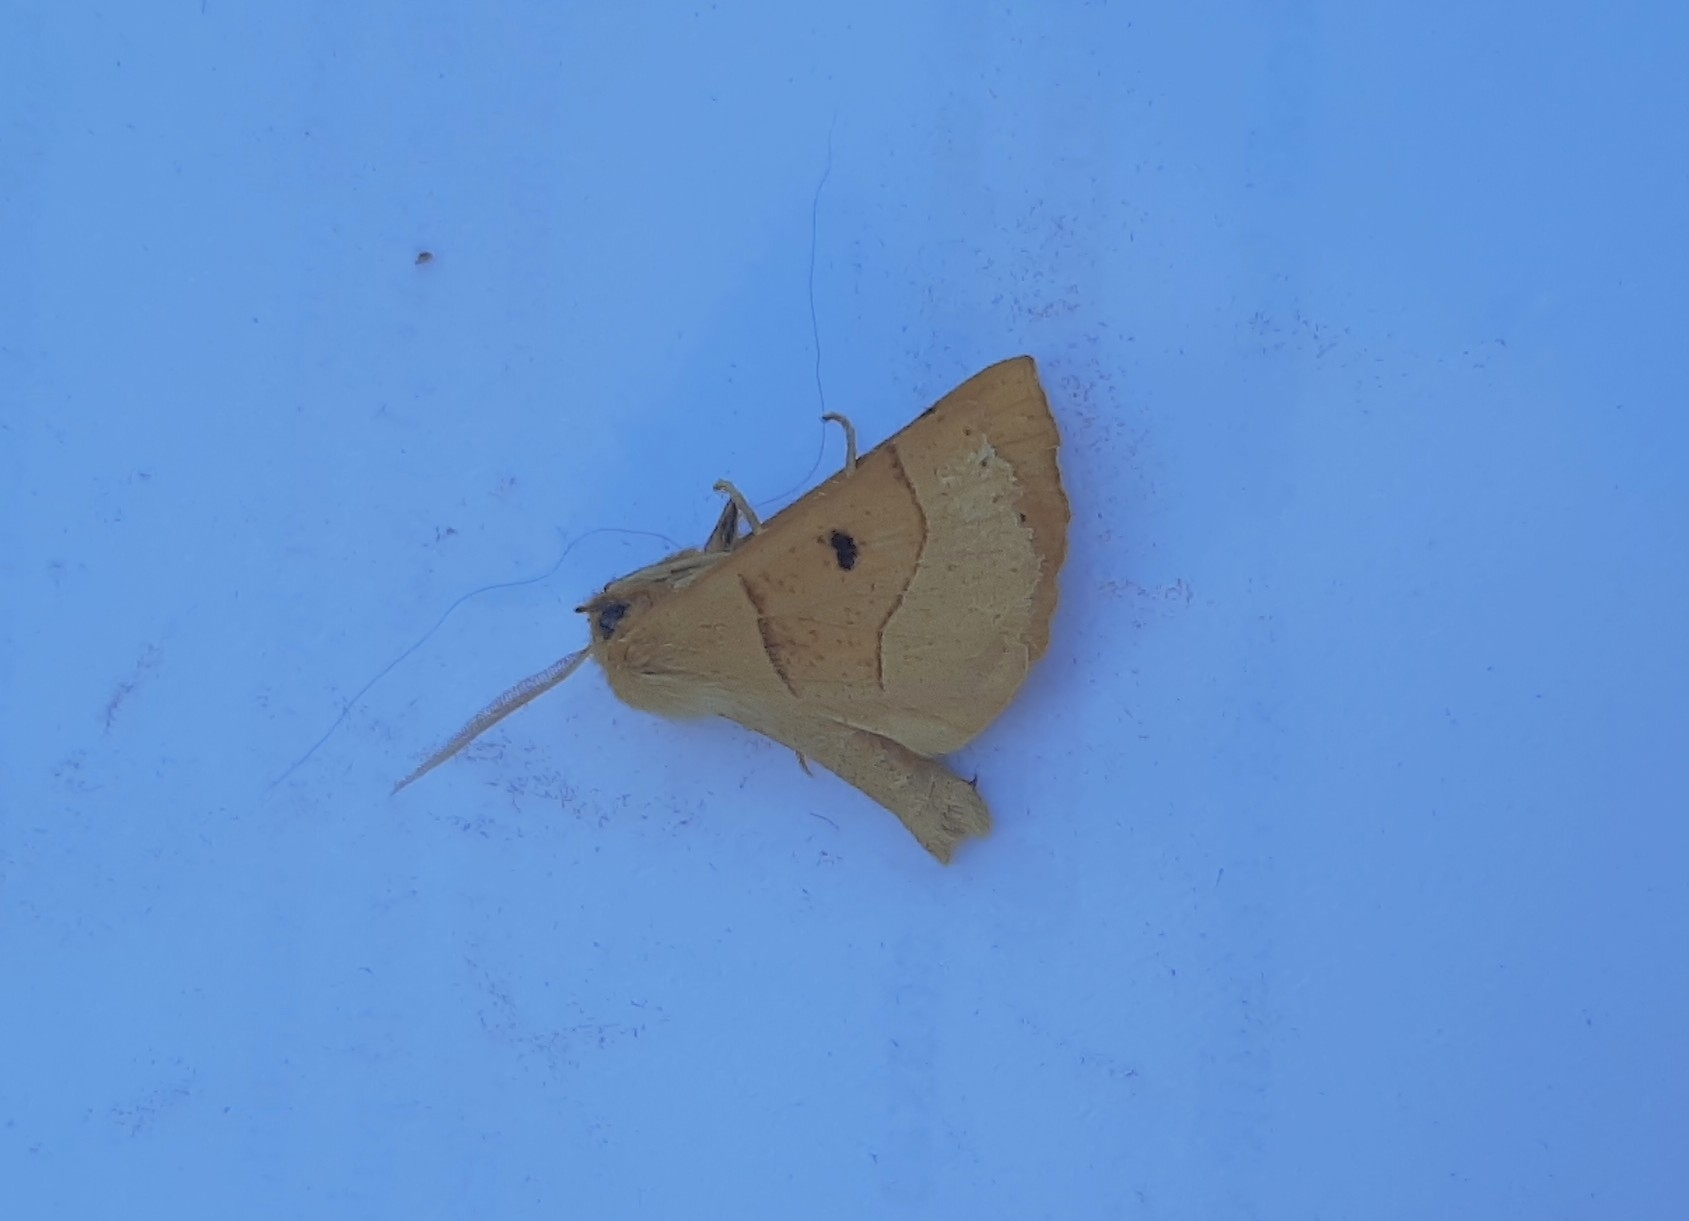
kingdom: Animalia
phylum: Arthropoda
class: Insecta
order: Lepidoptera
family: Geometridae
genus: Crocallis
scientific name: Crocallis elinguaria
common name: Scalloped oak
